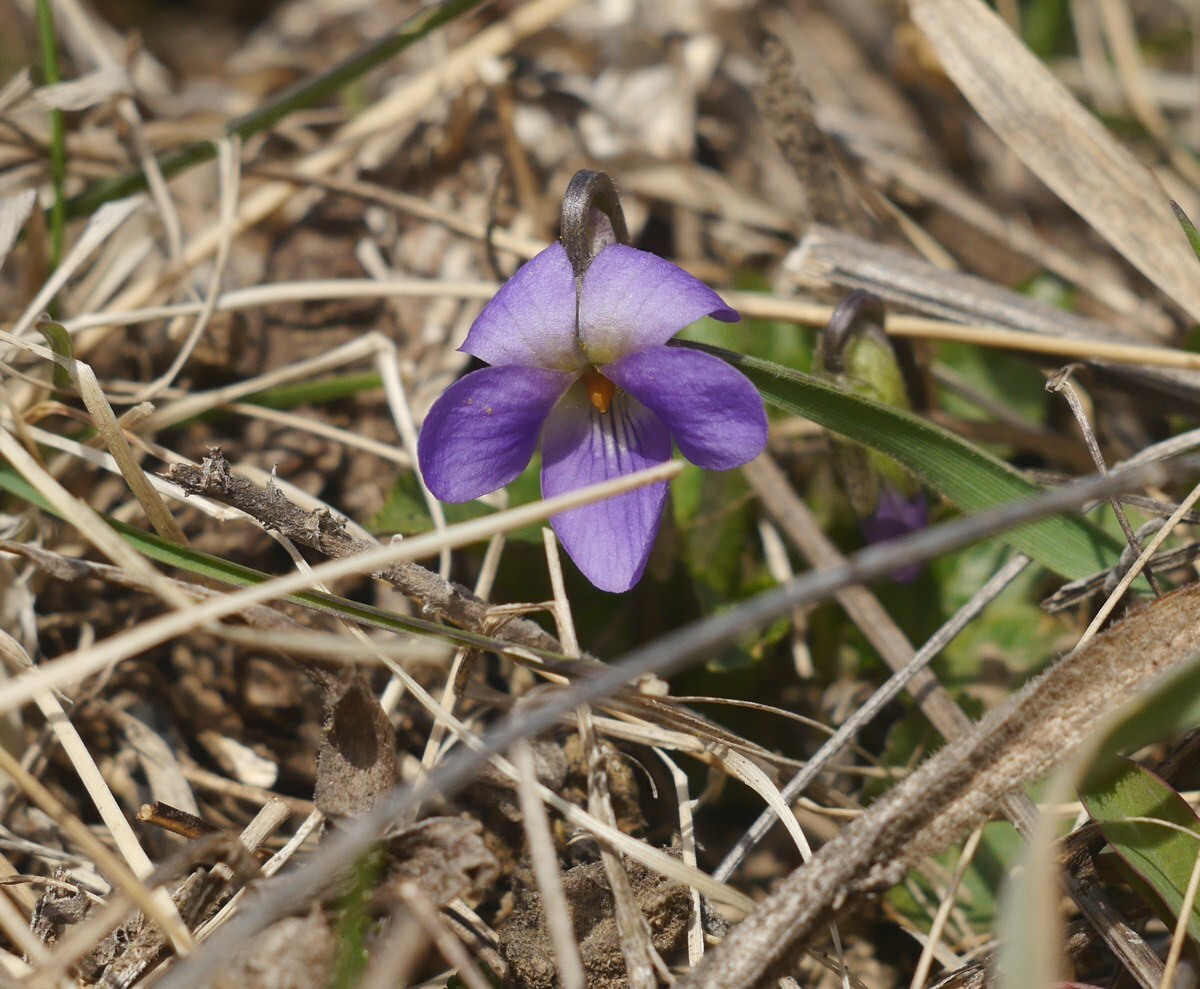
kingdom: Plantae
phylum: Tracheophyta
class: Magnoliopsida
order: Malpighiales
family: Violaceae
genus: Viola
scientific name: Viola ambigua
